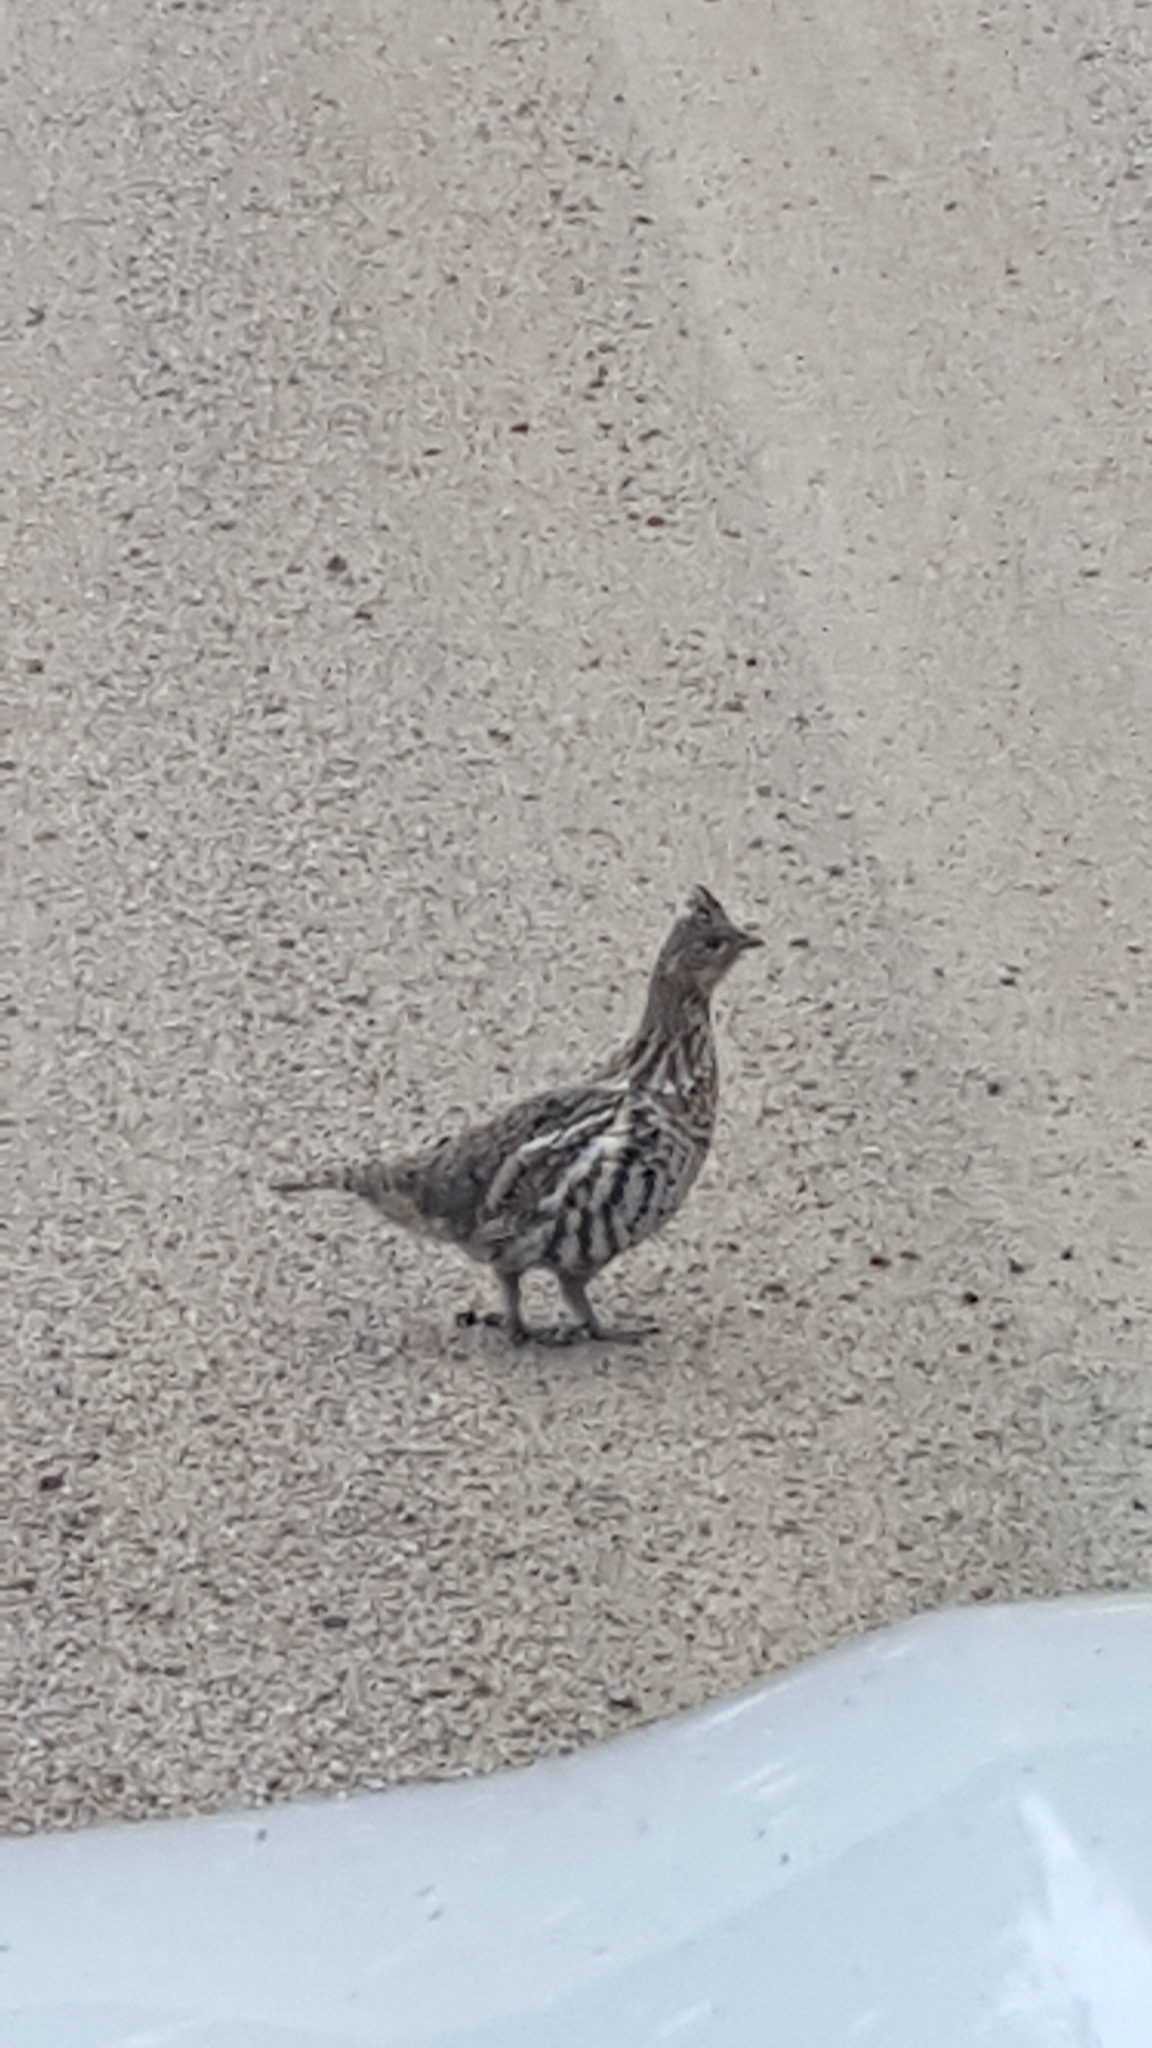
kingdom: Animalia
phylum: Chordata
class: Aves
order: Galliformes
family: Phasianidae
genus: Bonasa
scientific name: Bonasa umbellus
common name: Ruffed grouse
